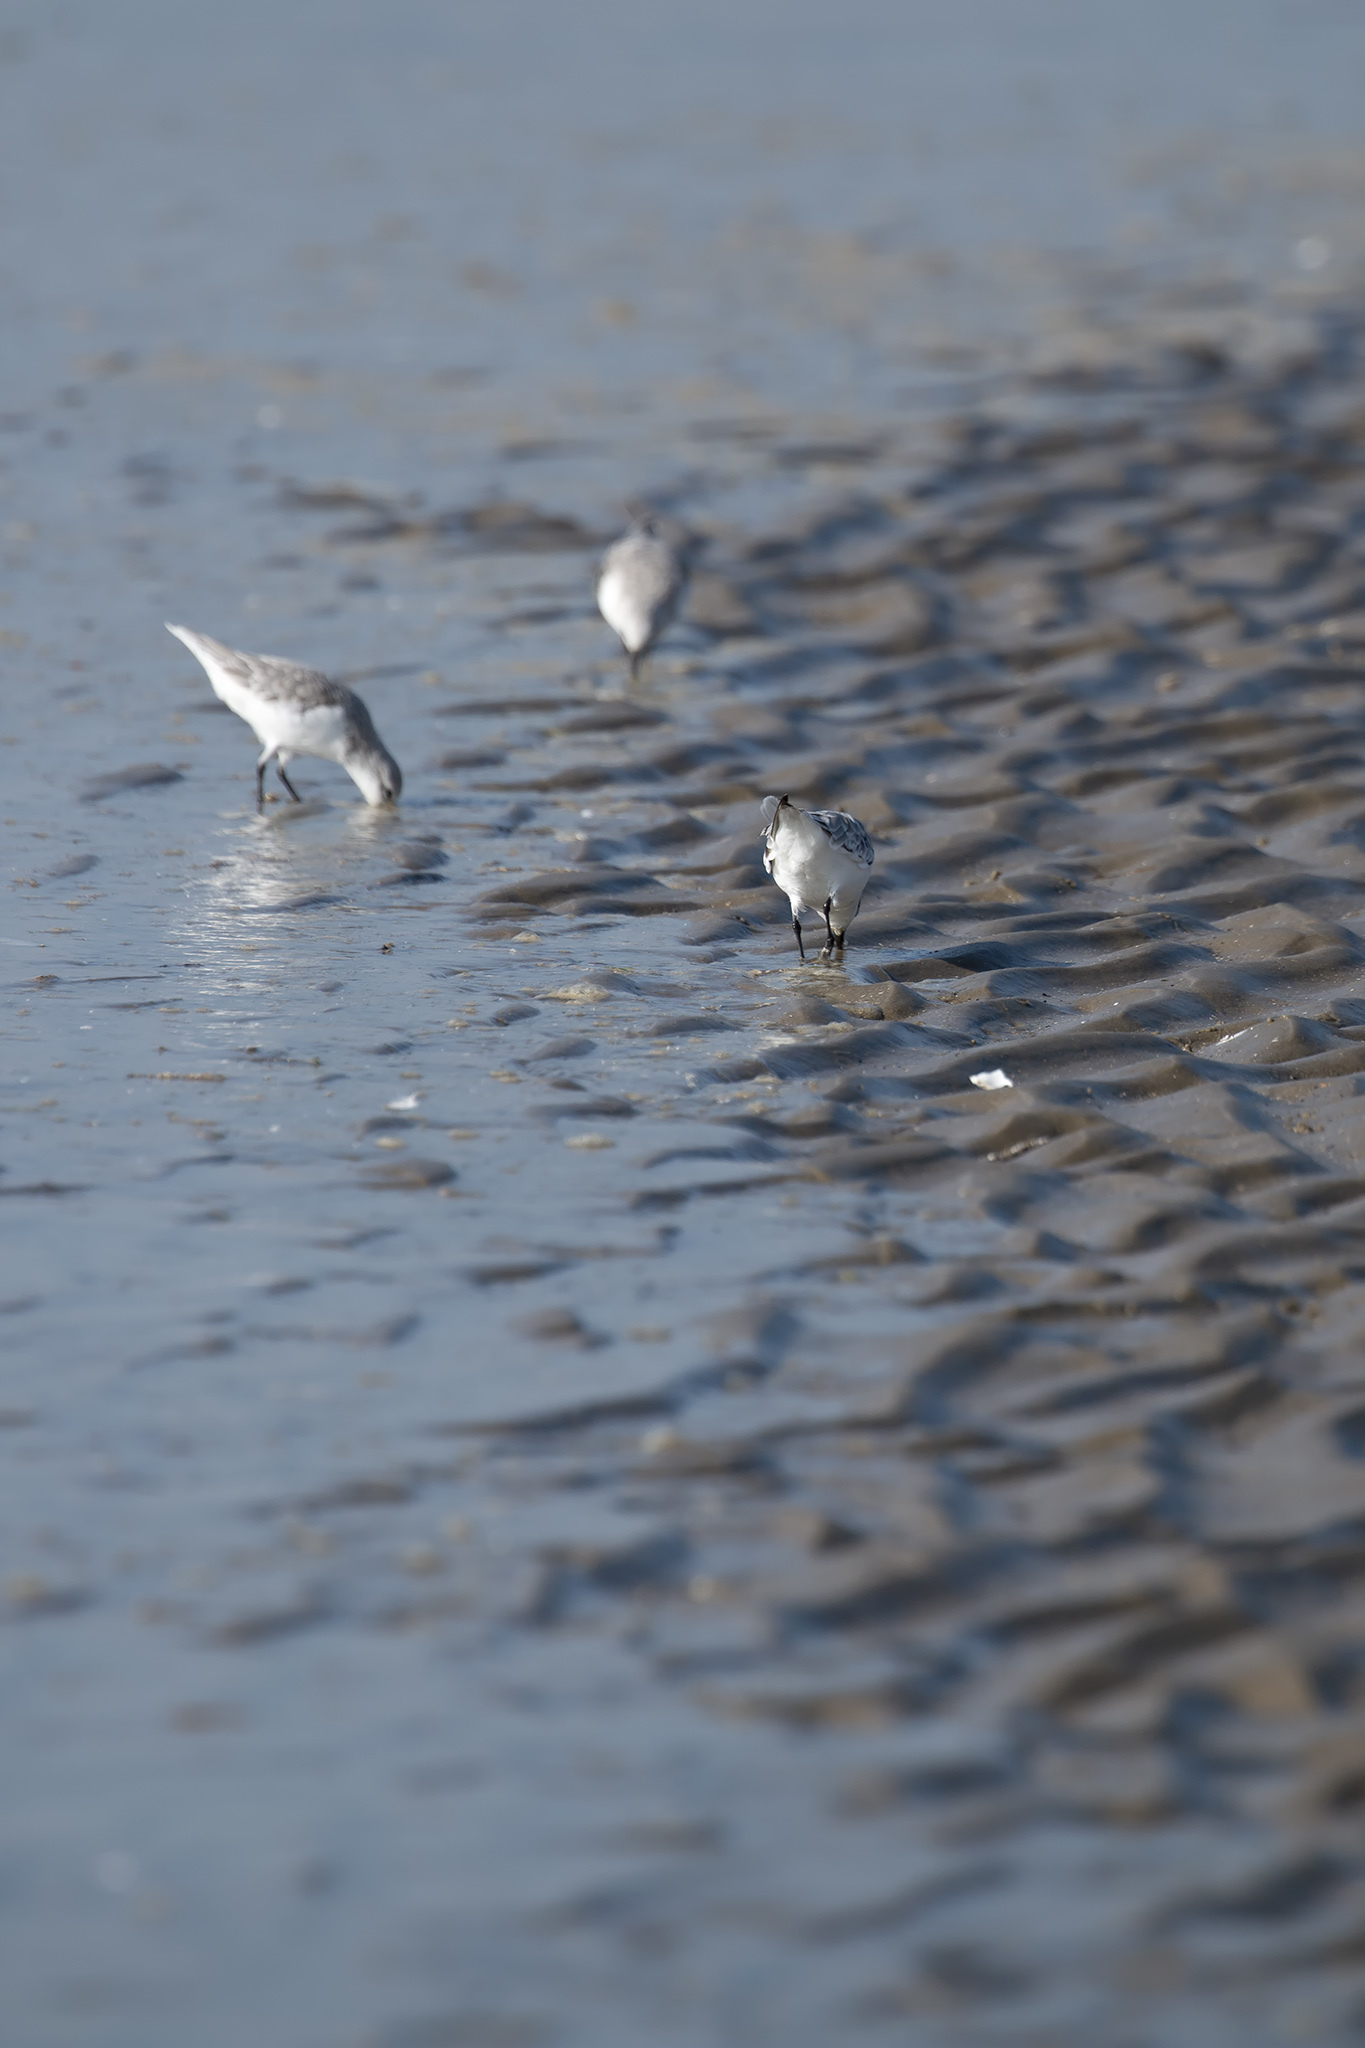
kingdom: Animalia
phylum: Chordata
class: Aves
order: Charadriiformes
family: Scolopacidae
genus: Calidris
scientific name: Calidris alba
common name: Sanderling
